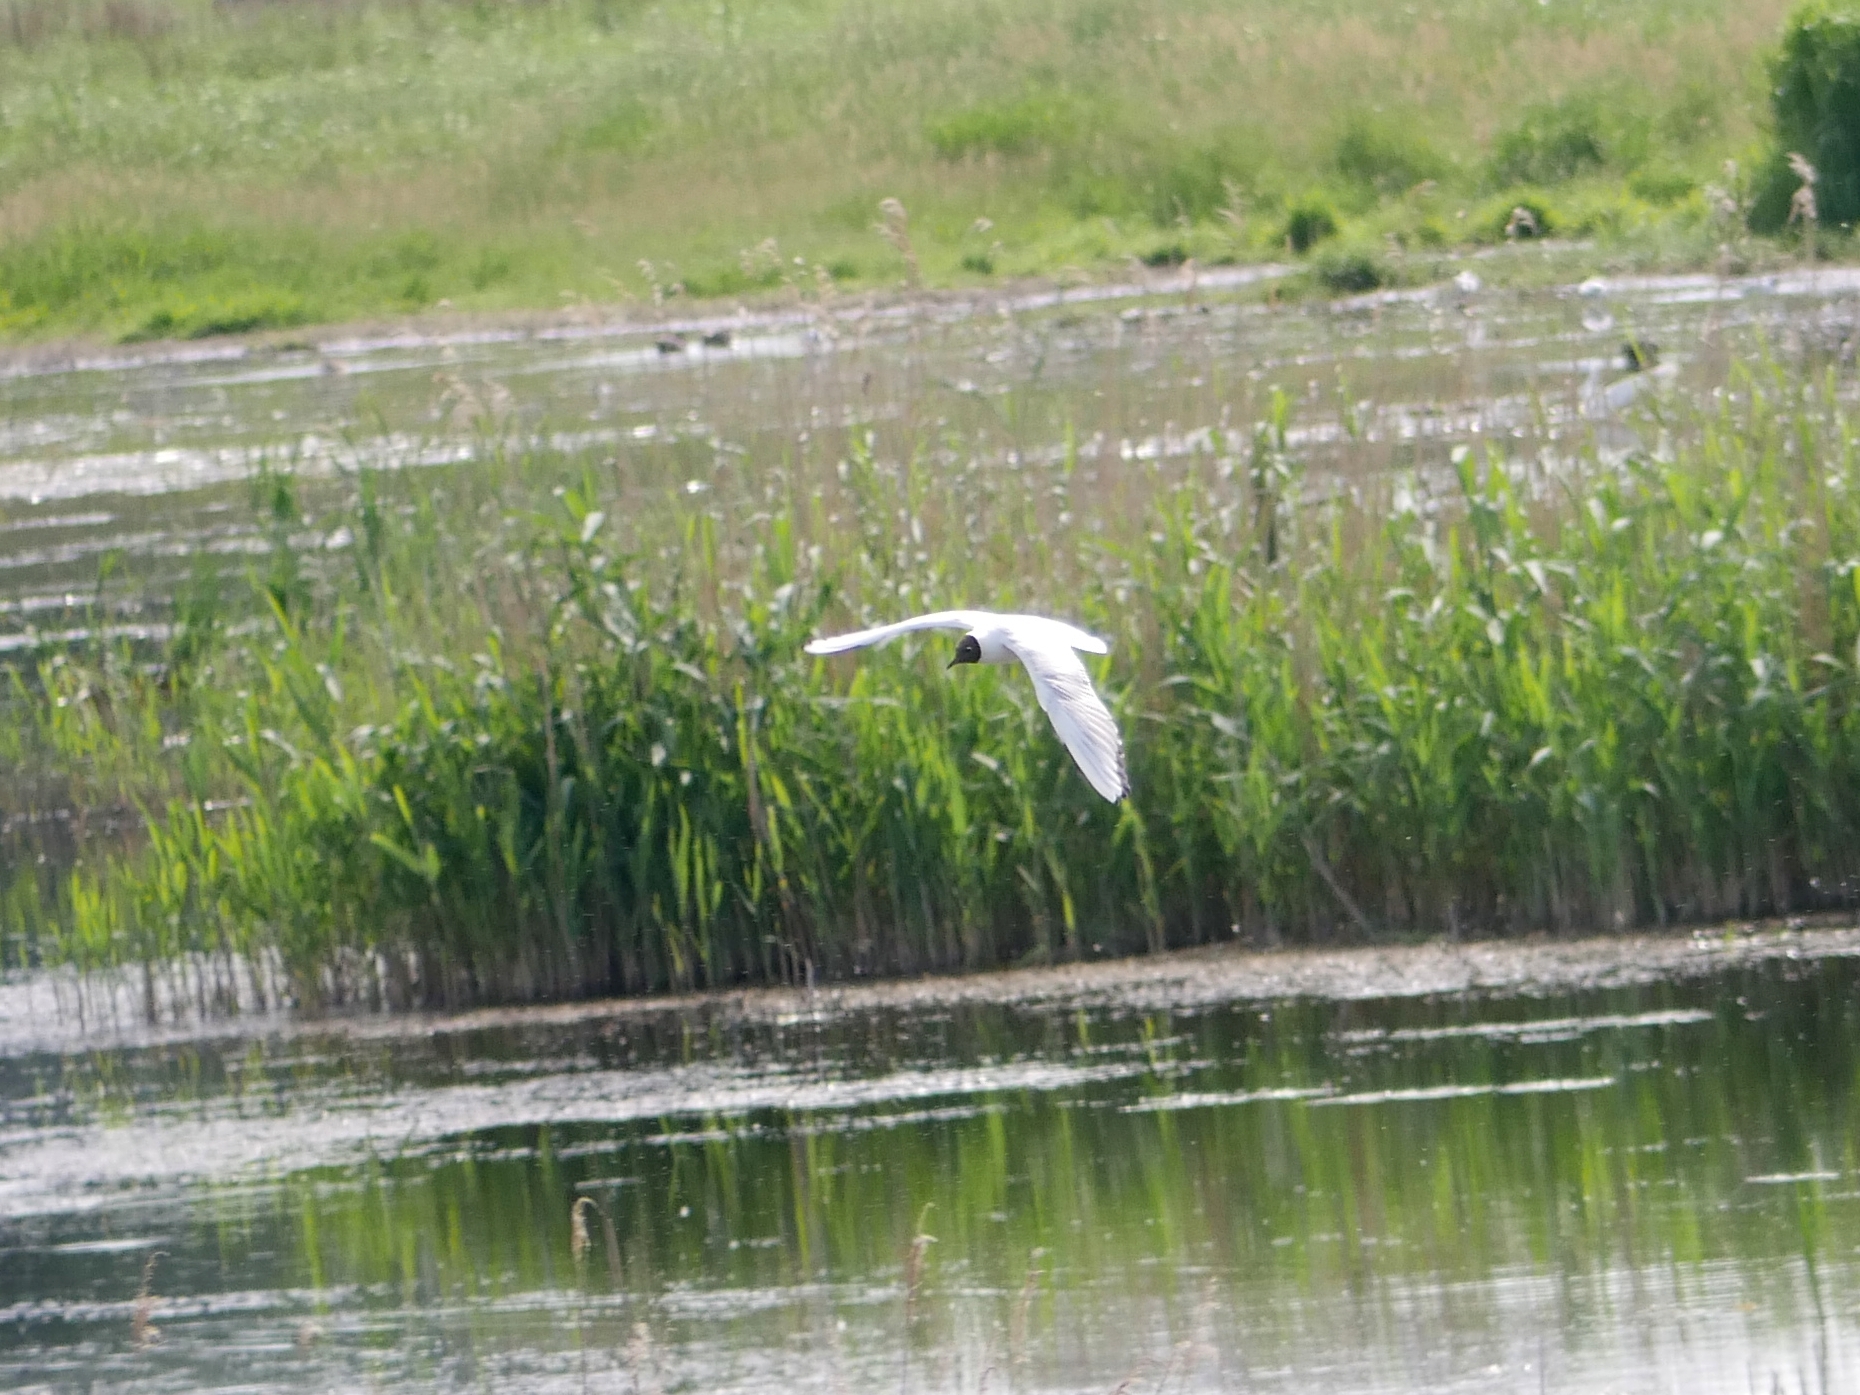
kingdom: Animalia
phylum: Chordata
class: Aves
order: Charadriiformes
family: Laridae
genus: Chroicocephalus
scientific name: Chroicocephalus ridibundus
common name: Black-headed gull
